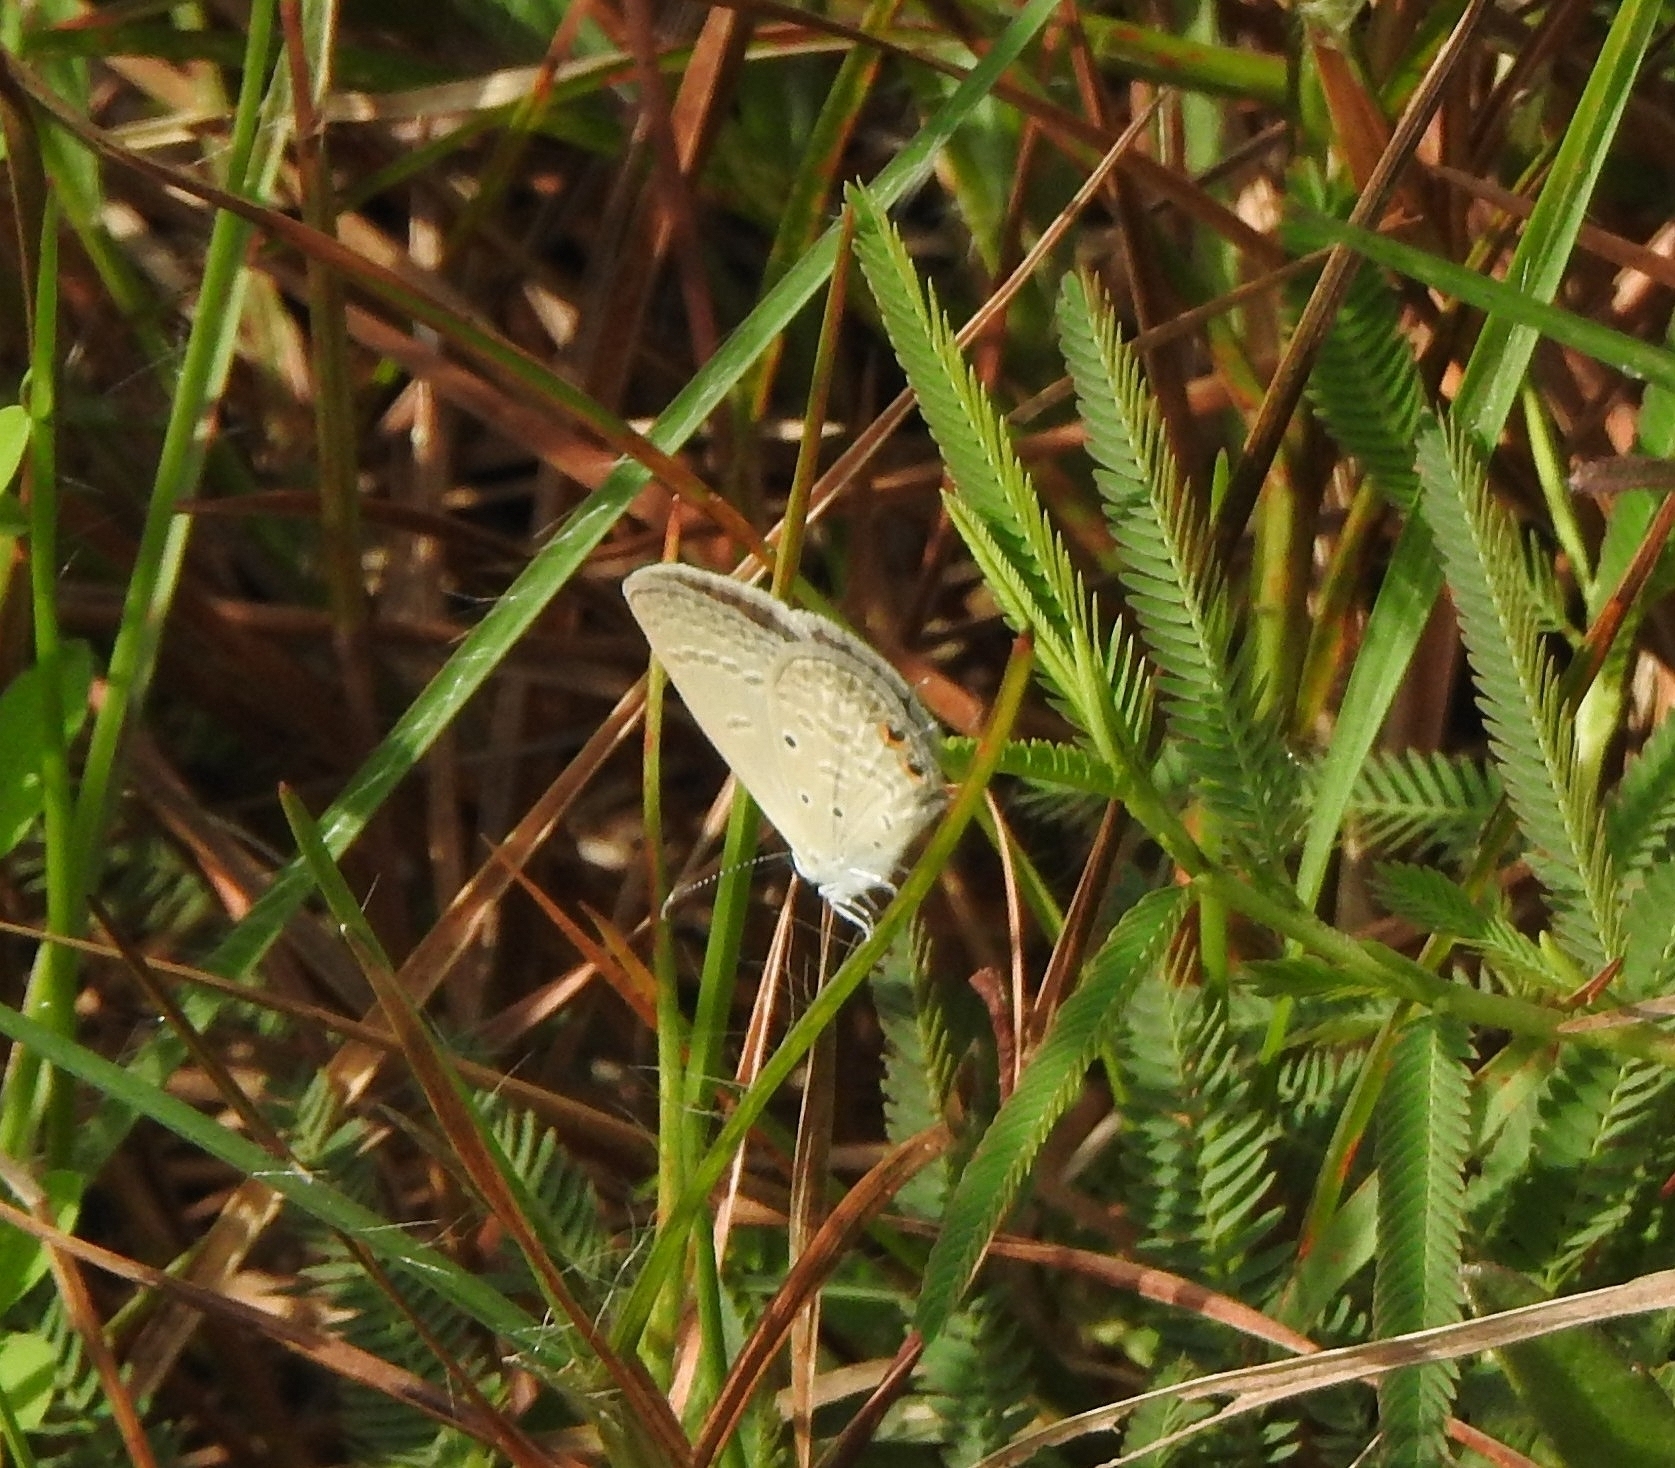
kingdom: Animalia
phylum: Arthropoda
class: Insecta
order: Lepidoptera
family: Lycaenidae
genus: Euchrysops
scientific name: Euchrysops cnejus
